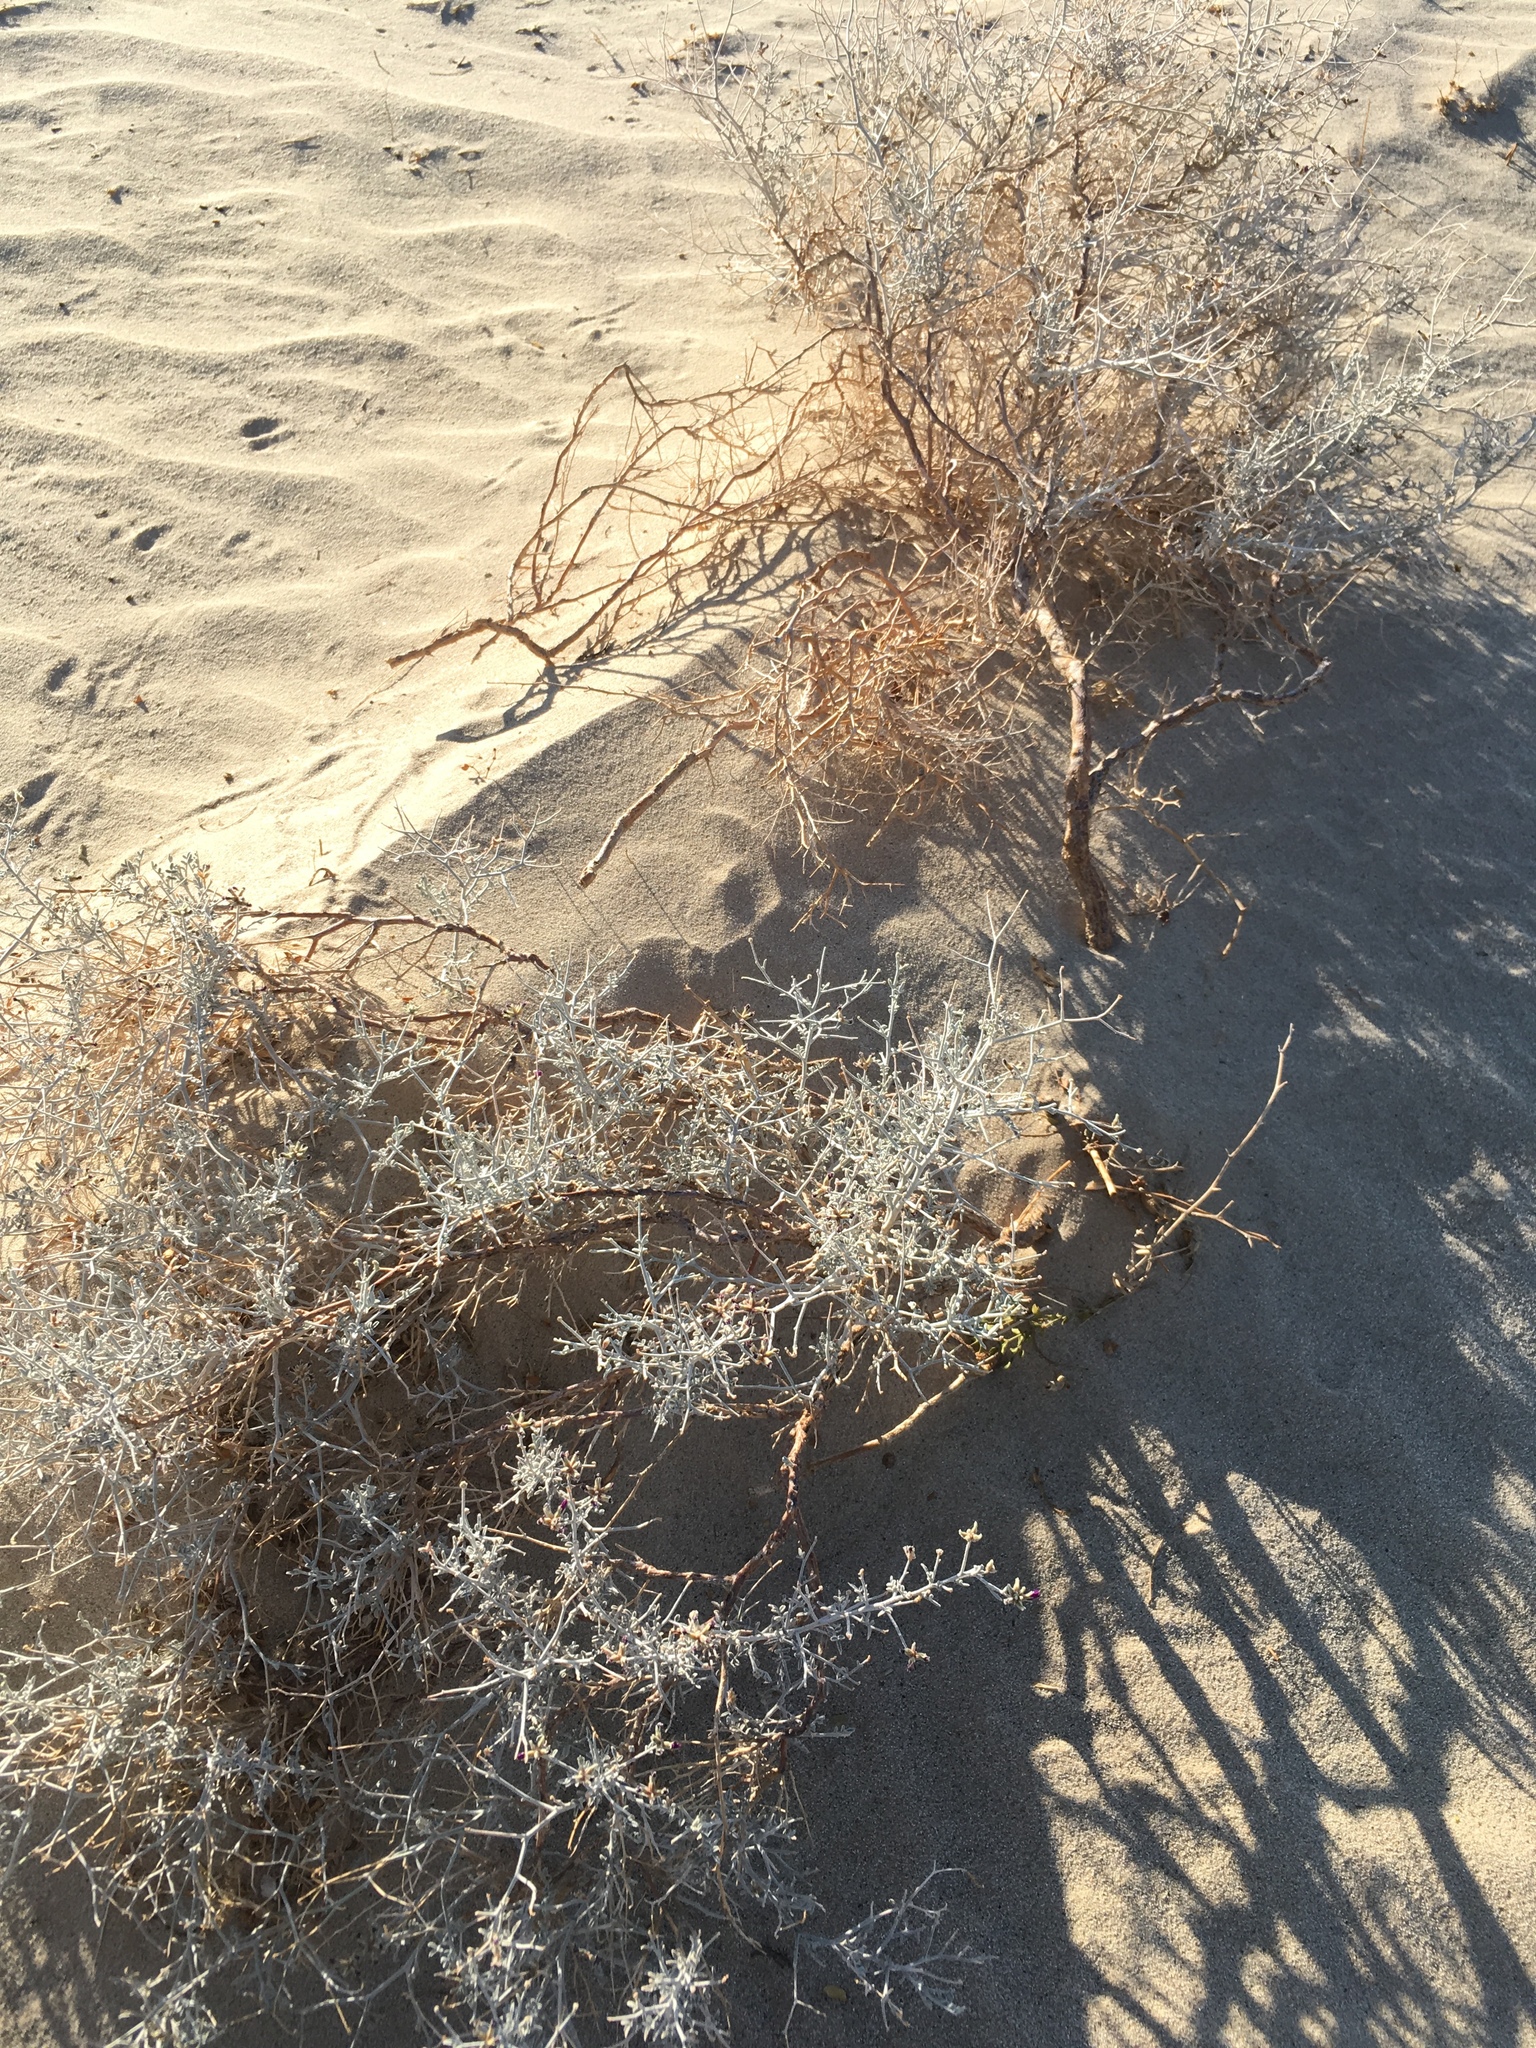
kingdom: Plantae
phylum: Tracheophyta
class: Magnoliopsida
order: Fabales
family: Fabaceae
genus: Psorothamnus
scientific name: Psorothamnus emoryi
